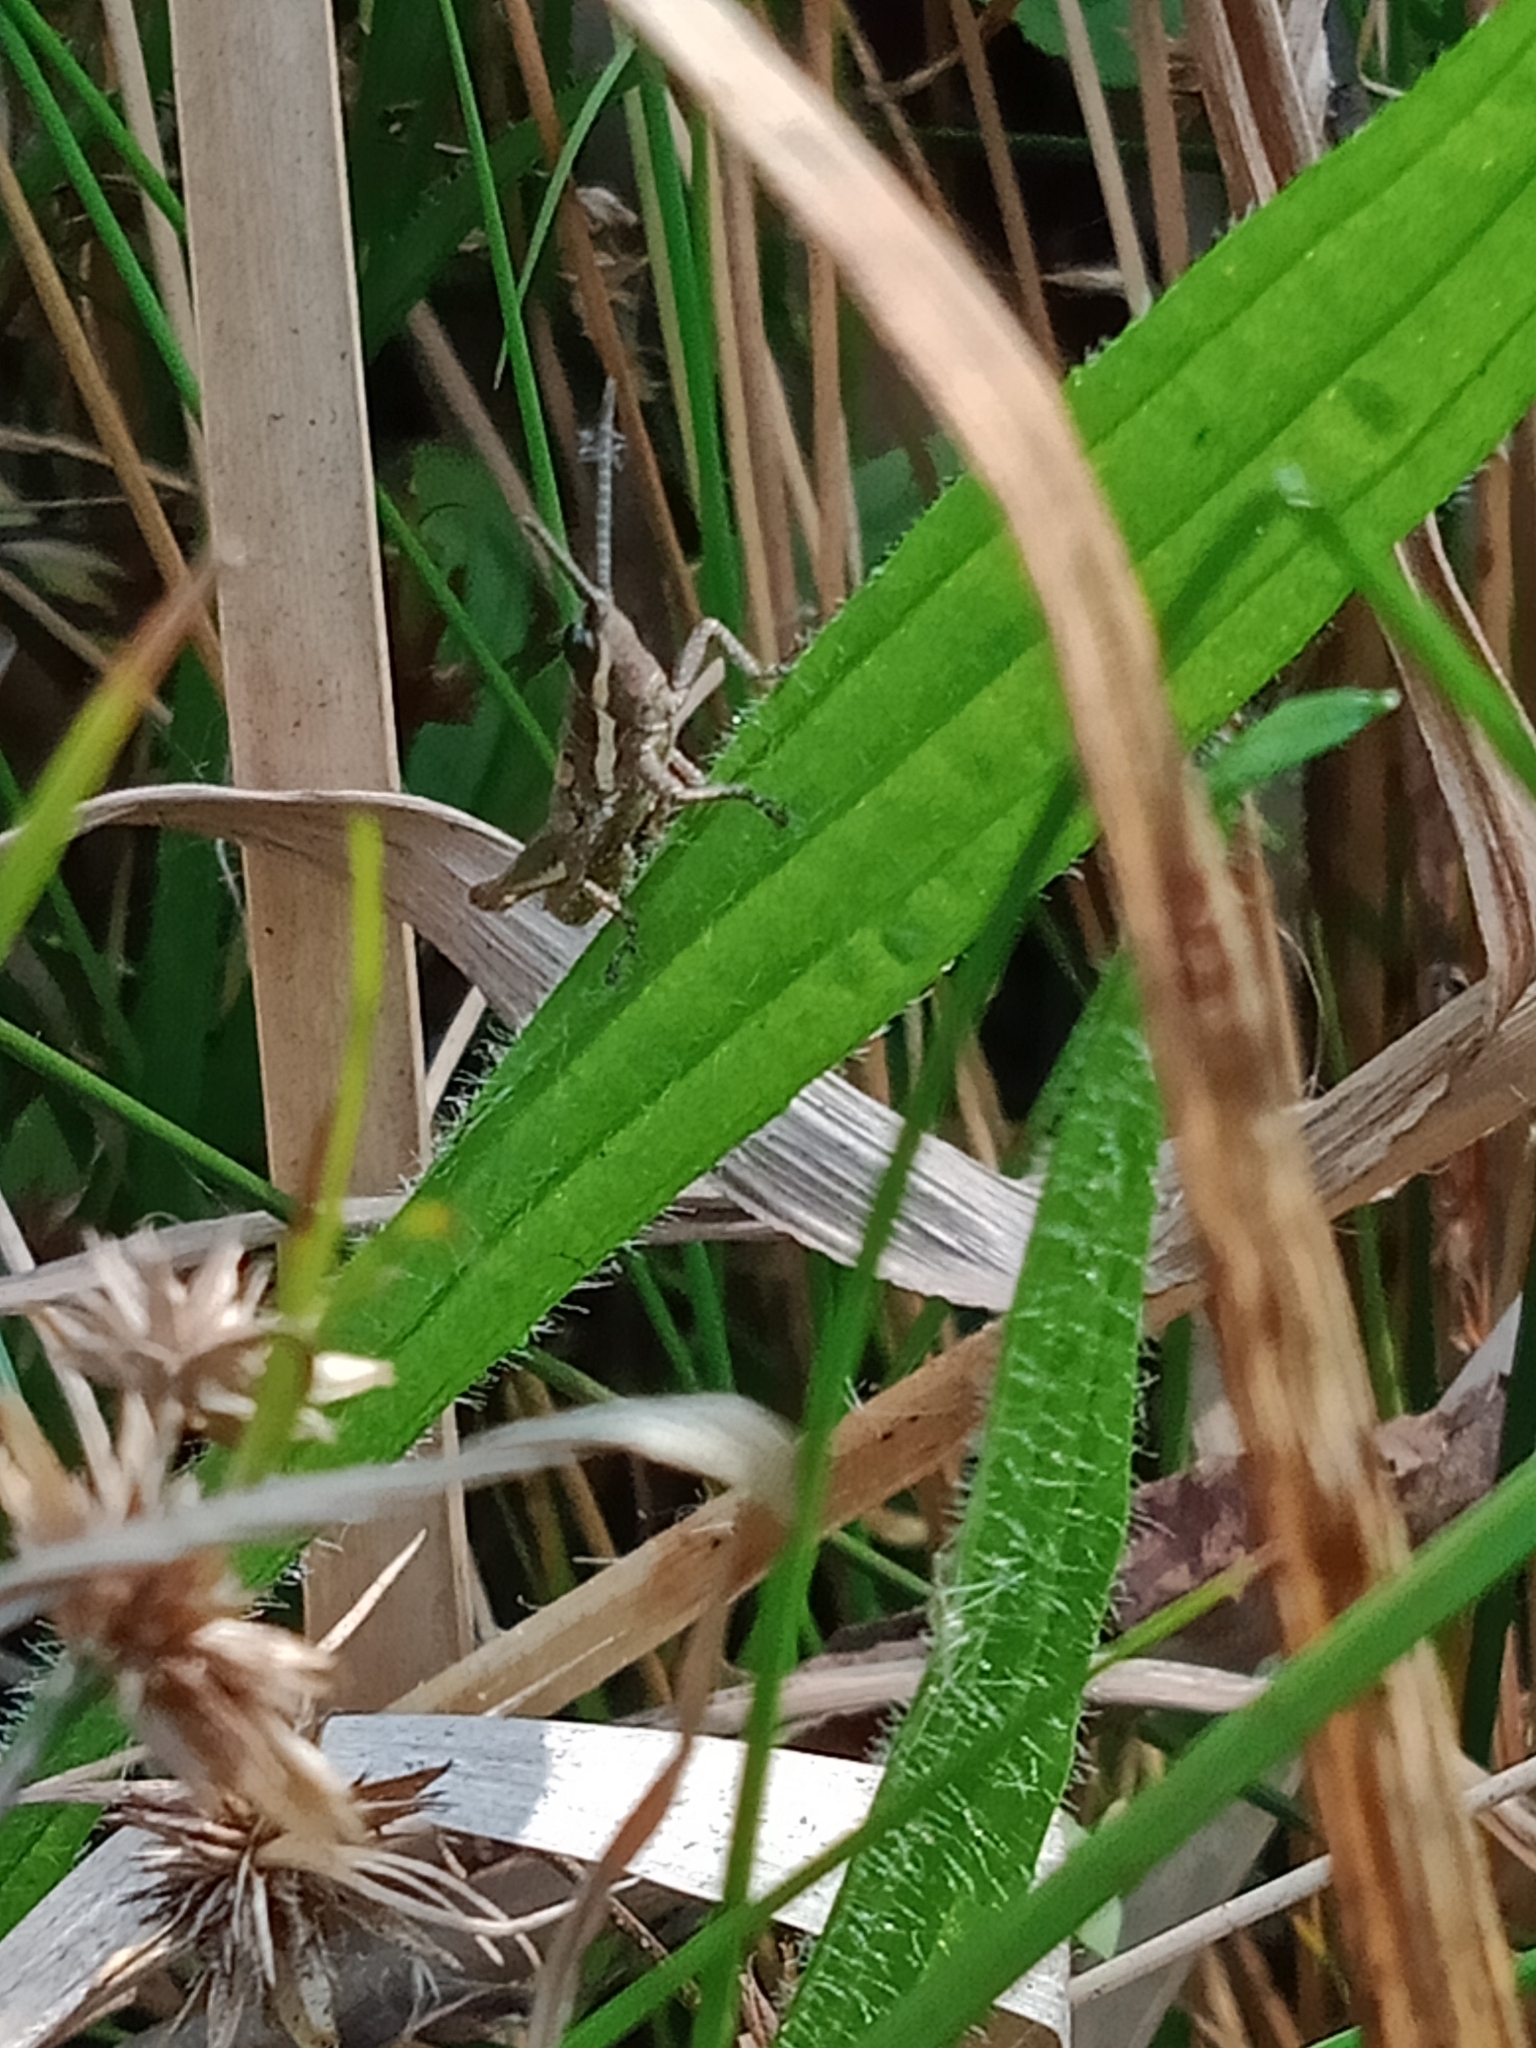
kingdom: Animalia
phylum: Arthropoda
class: Insecta
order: Orthoptera
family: Pyrgomorphidae
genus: Monistria
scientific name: Monistria discrepans
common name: Common pyrgomorph
